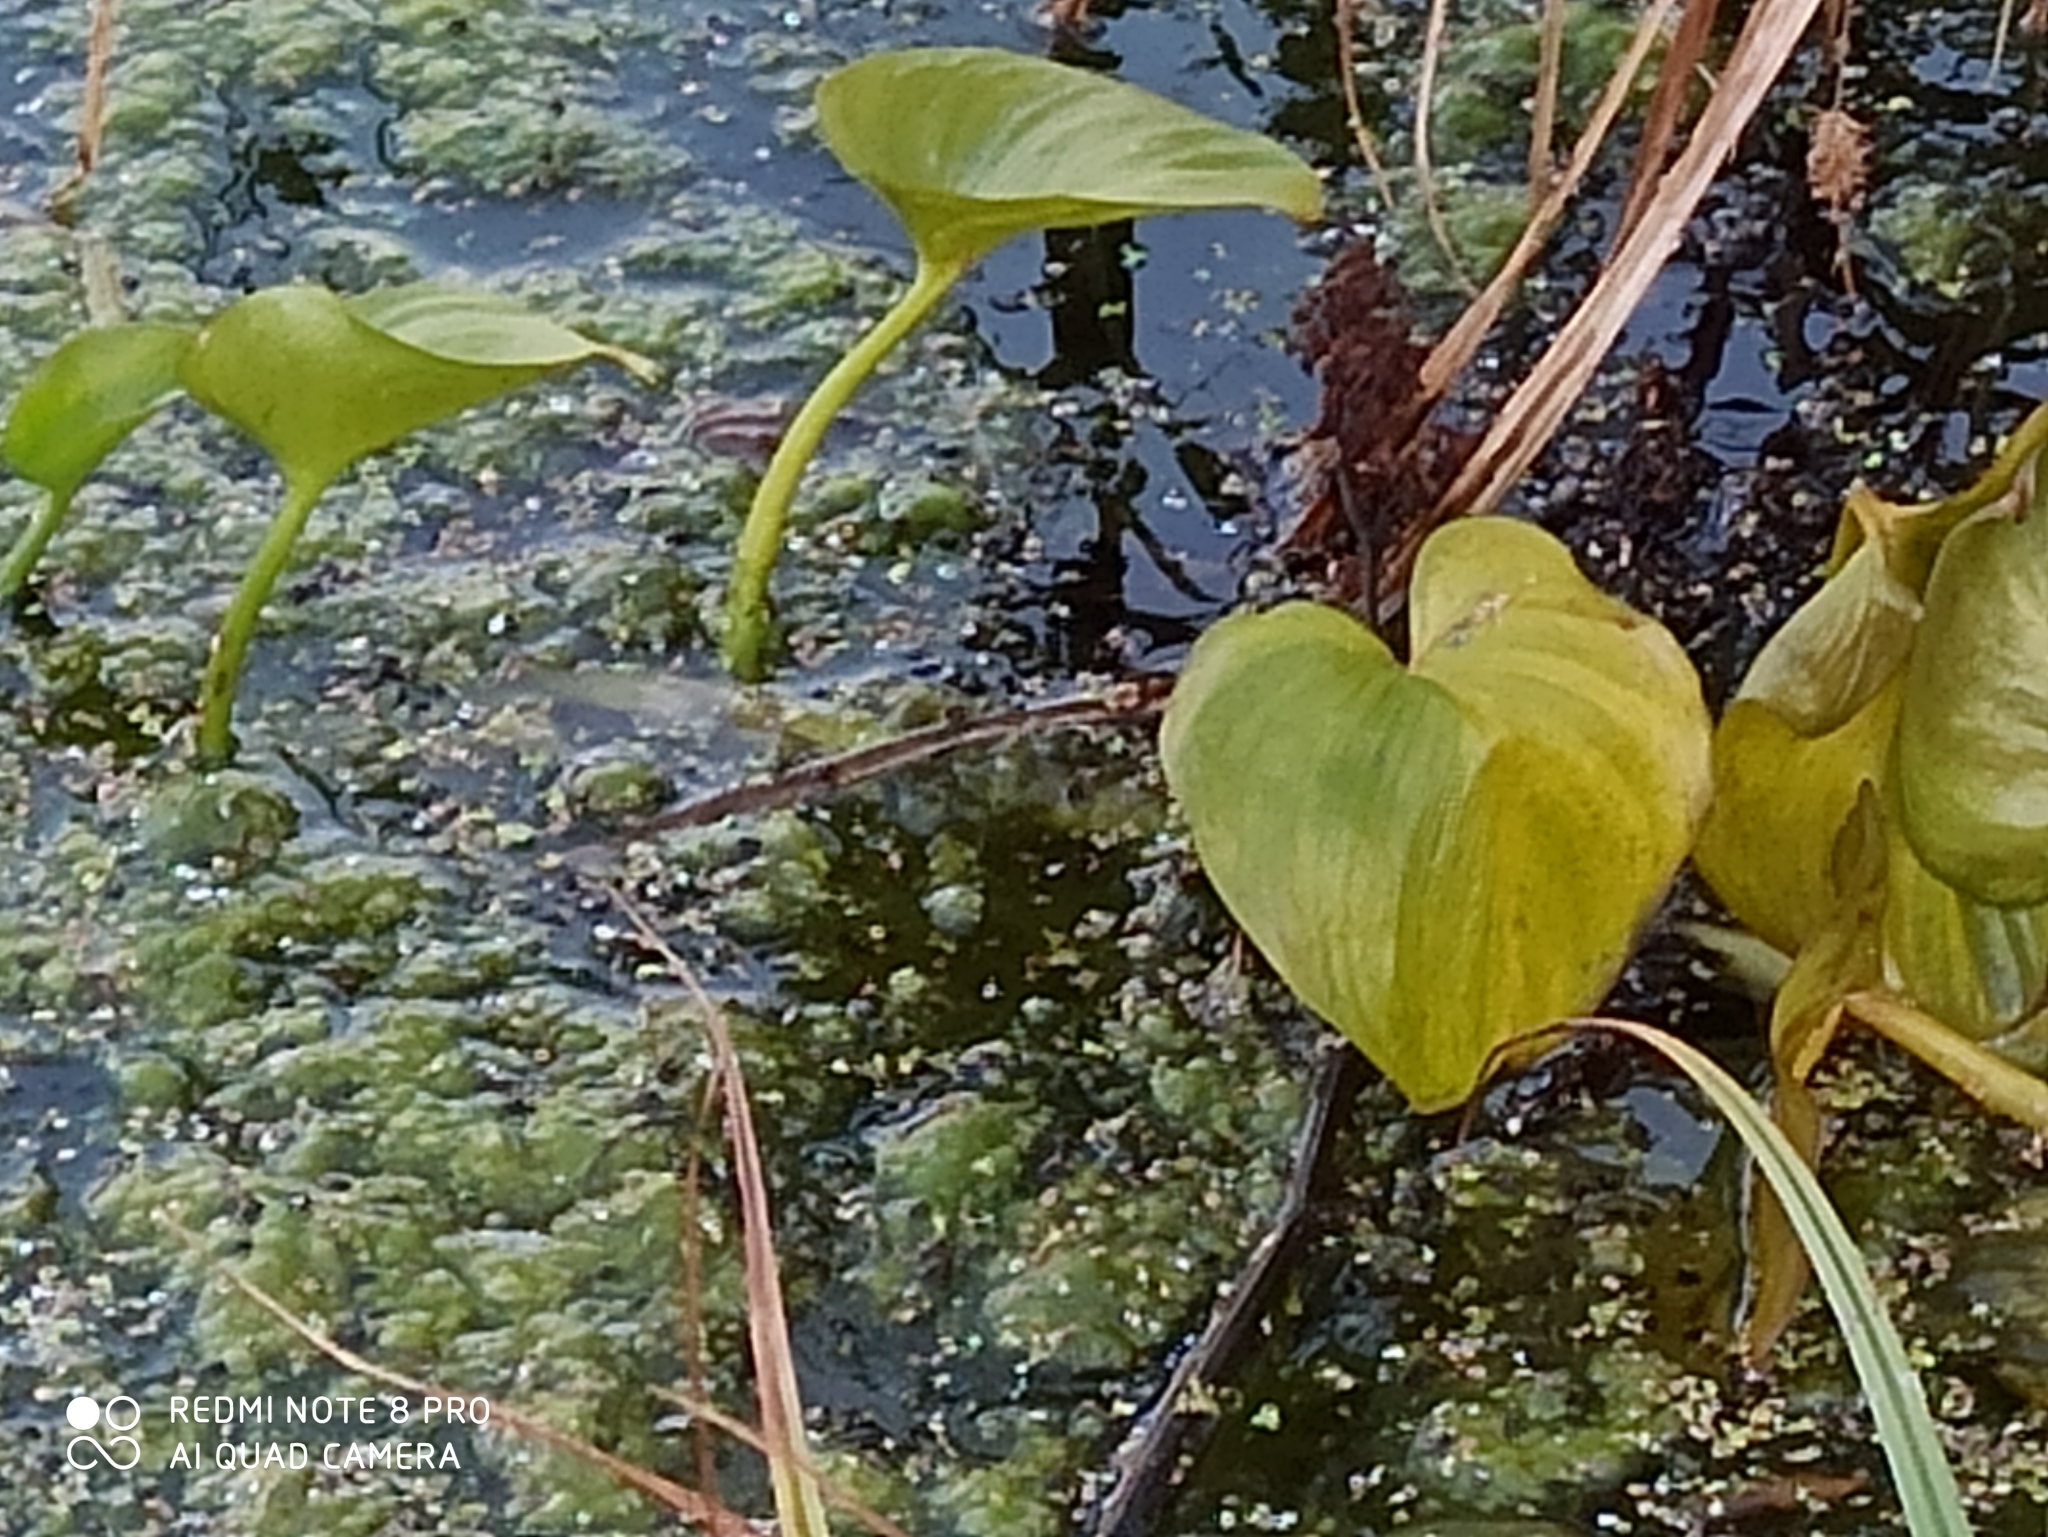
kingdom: Plantae
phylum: Tracheophyta
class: Liliopsida
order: Alismatales
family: Araceae
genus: Calla
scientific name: Calla palustris
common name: Bog arum
